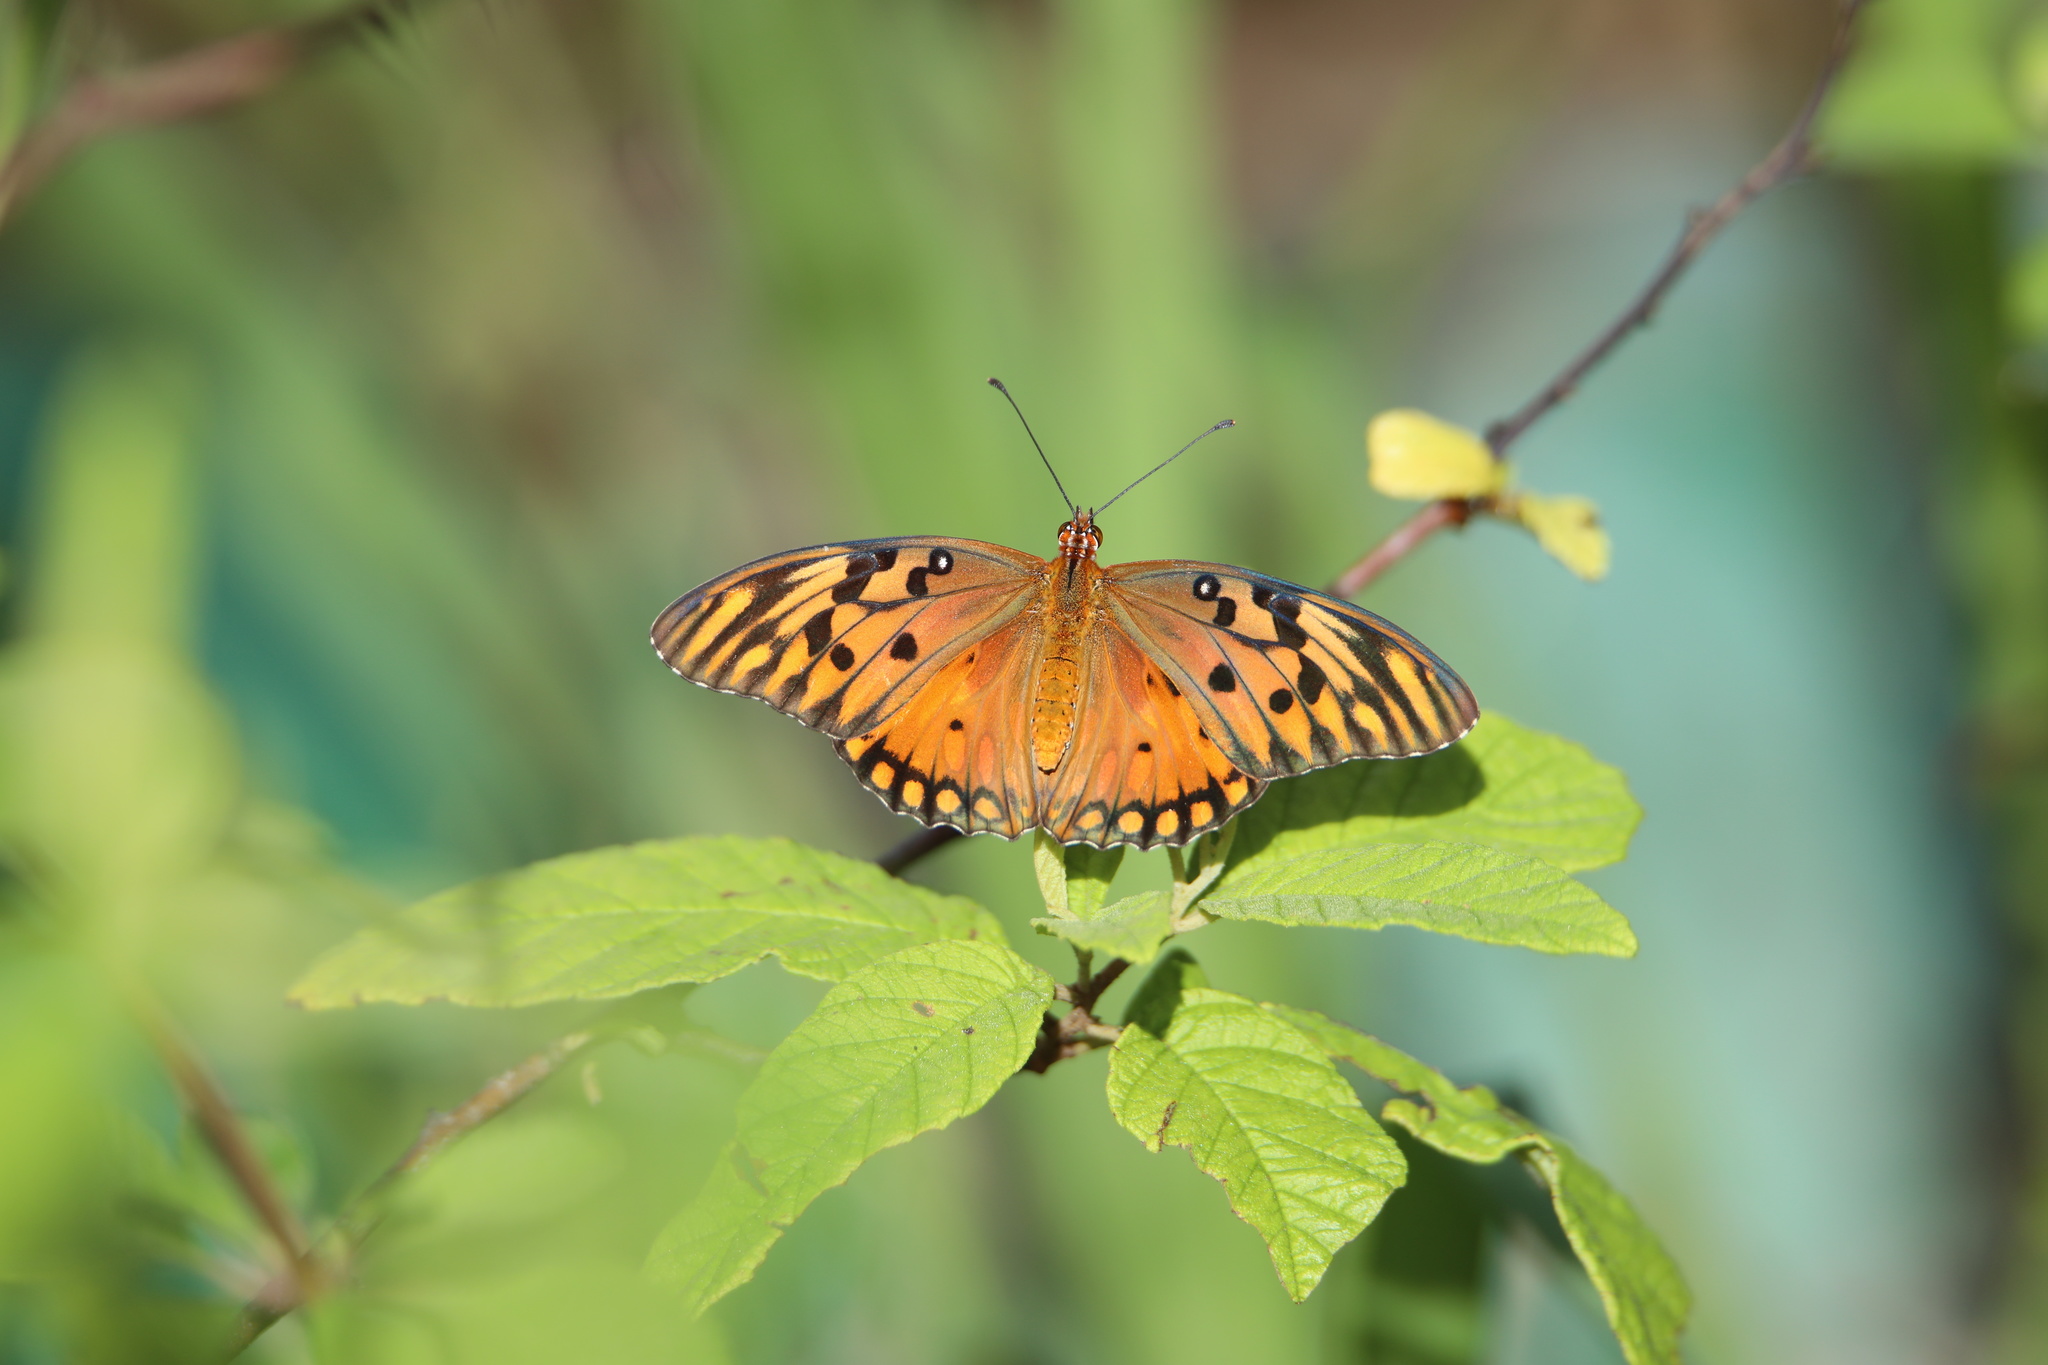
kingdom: Animalia
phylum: Arthropoda
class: Insecta
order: Lepidoptera
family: Nymphalidae
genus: Dione
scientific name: Dione vanillae
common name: Gulf fritillary
